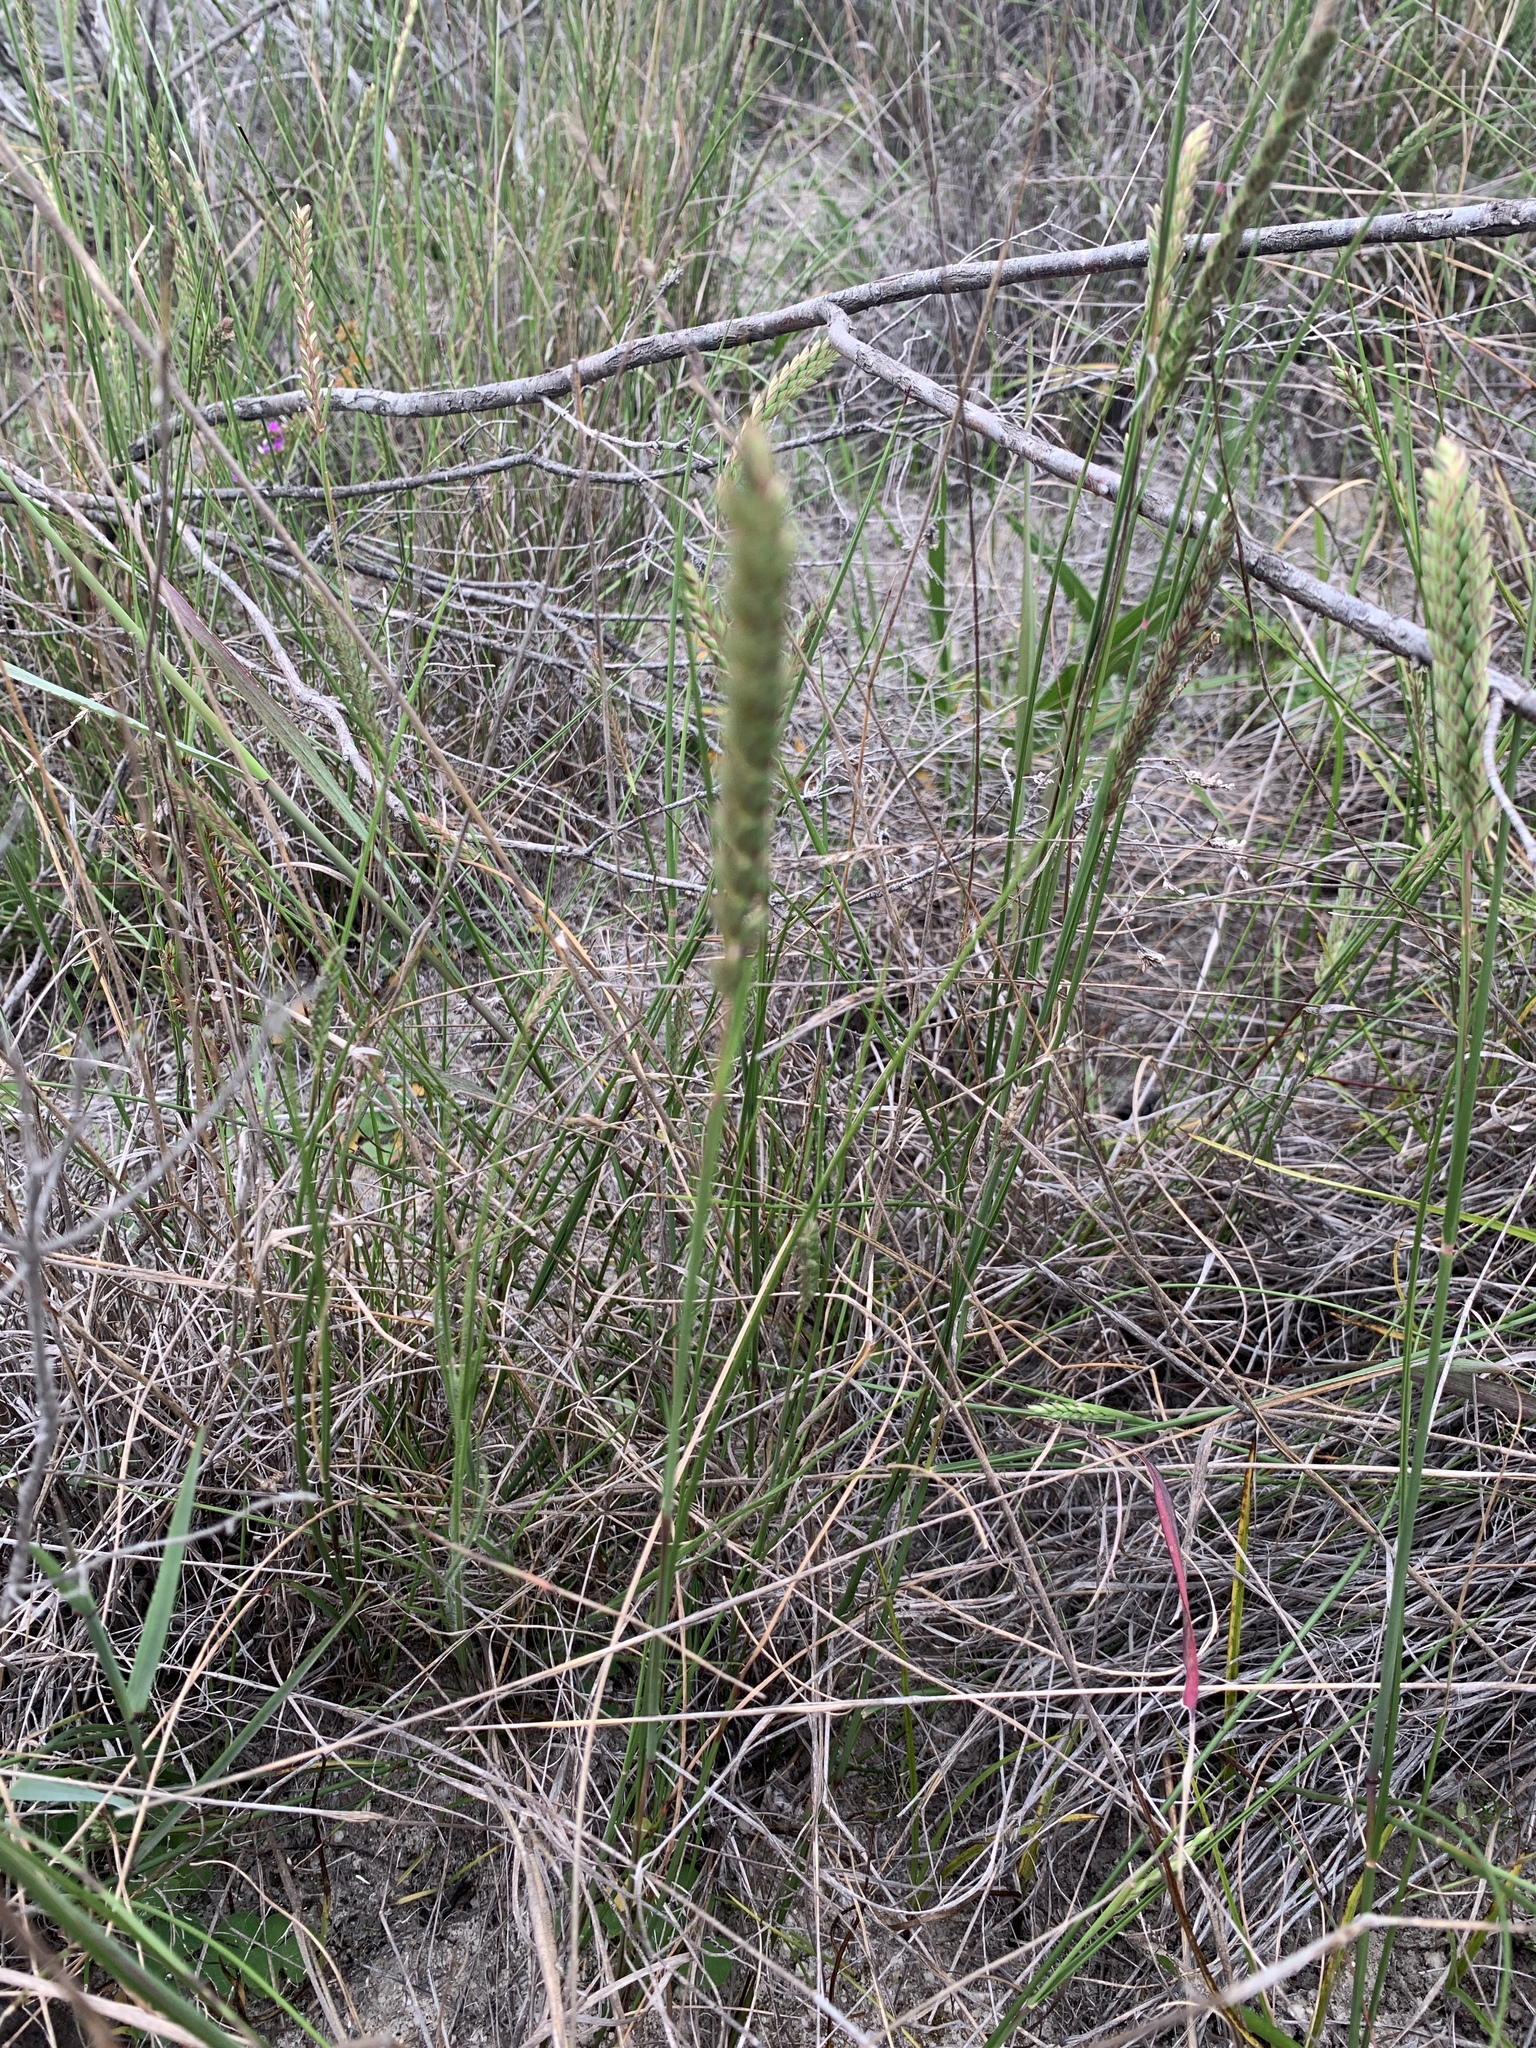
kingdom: Plantae
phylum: Tracheophyta
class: Liliopsida
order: Poales
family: Poaceae
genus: Tribolium
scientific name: Tribolium uniolae
